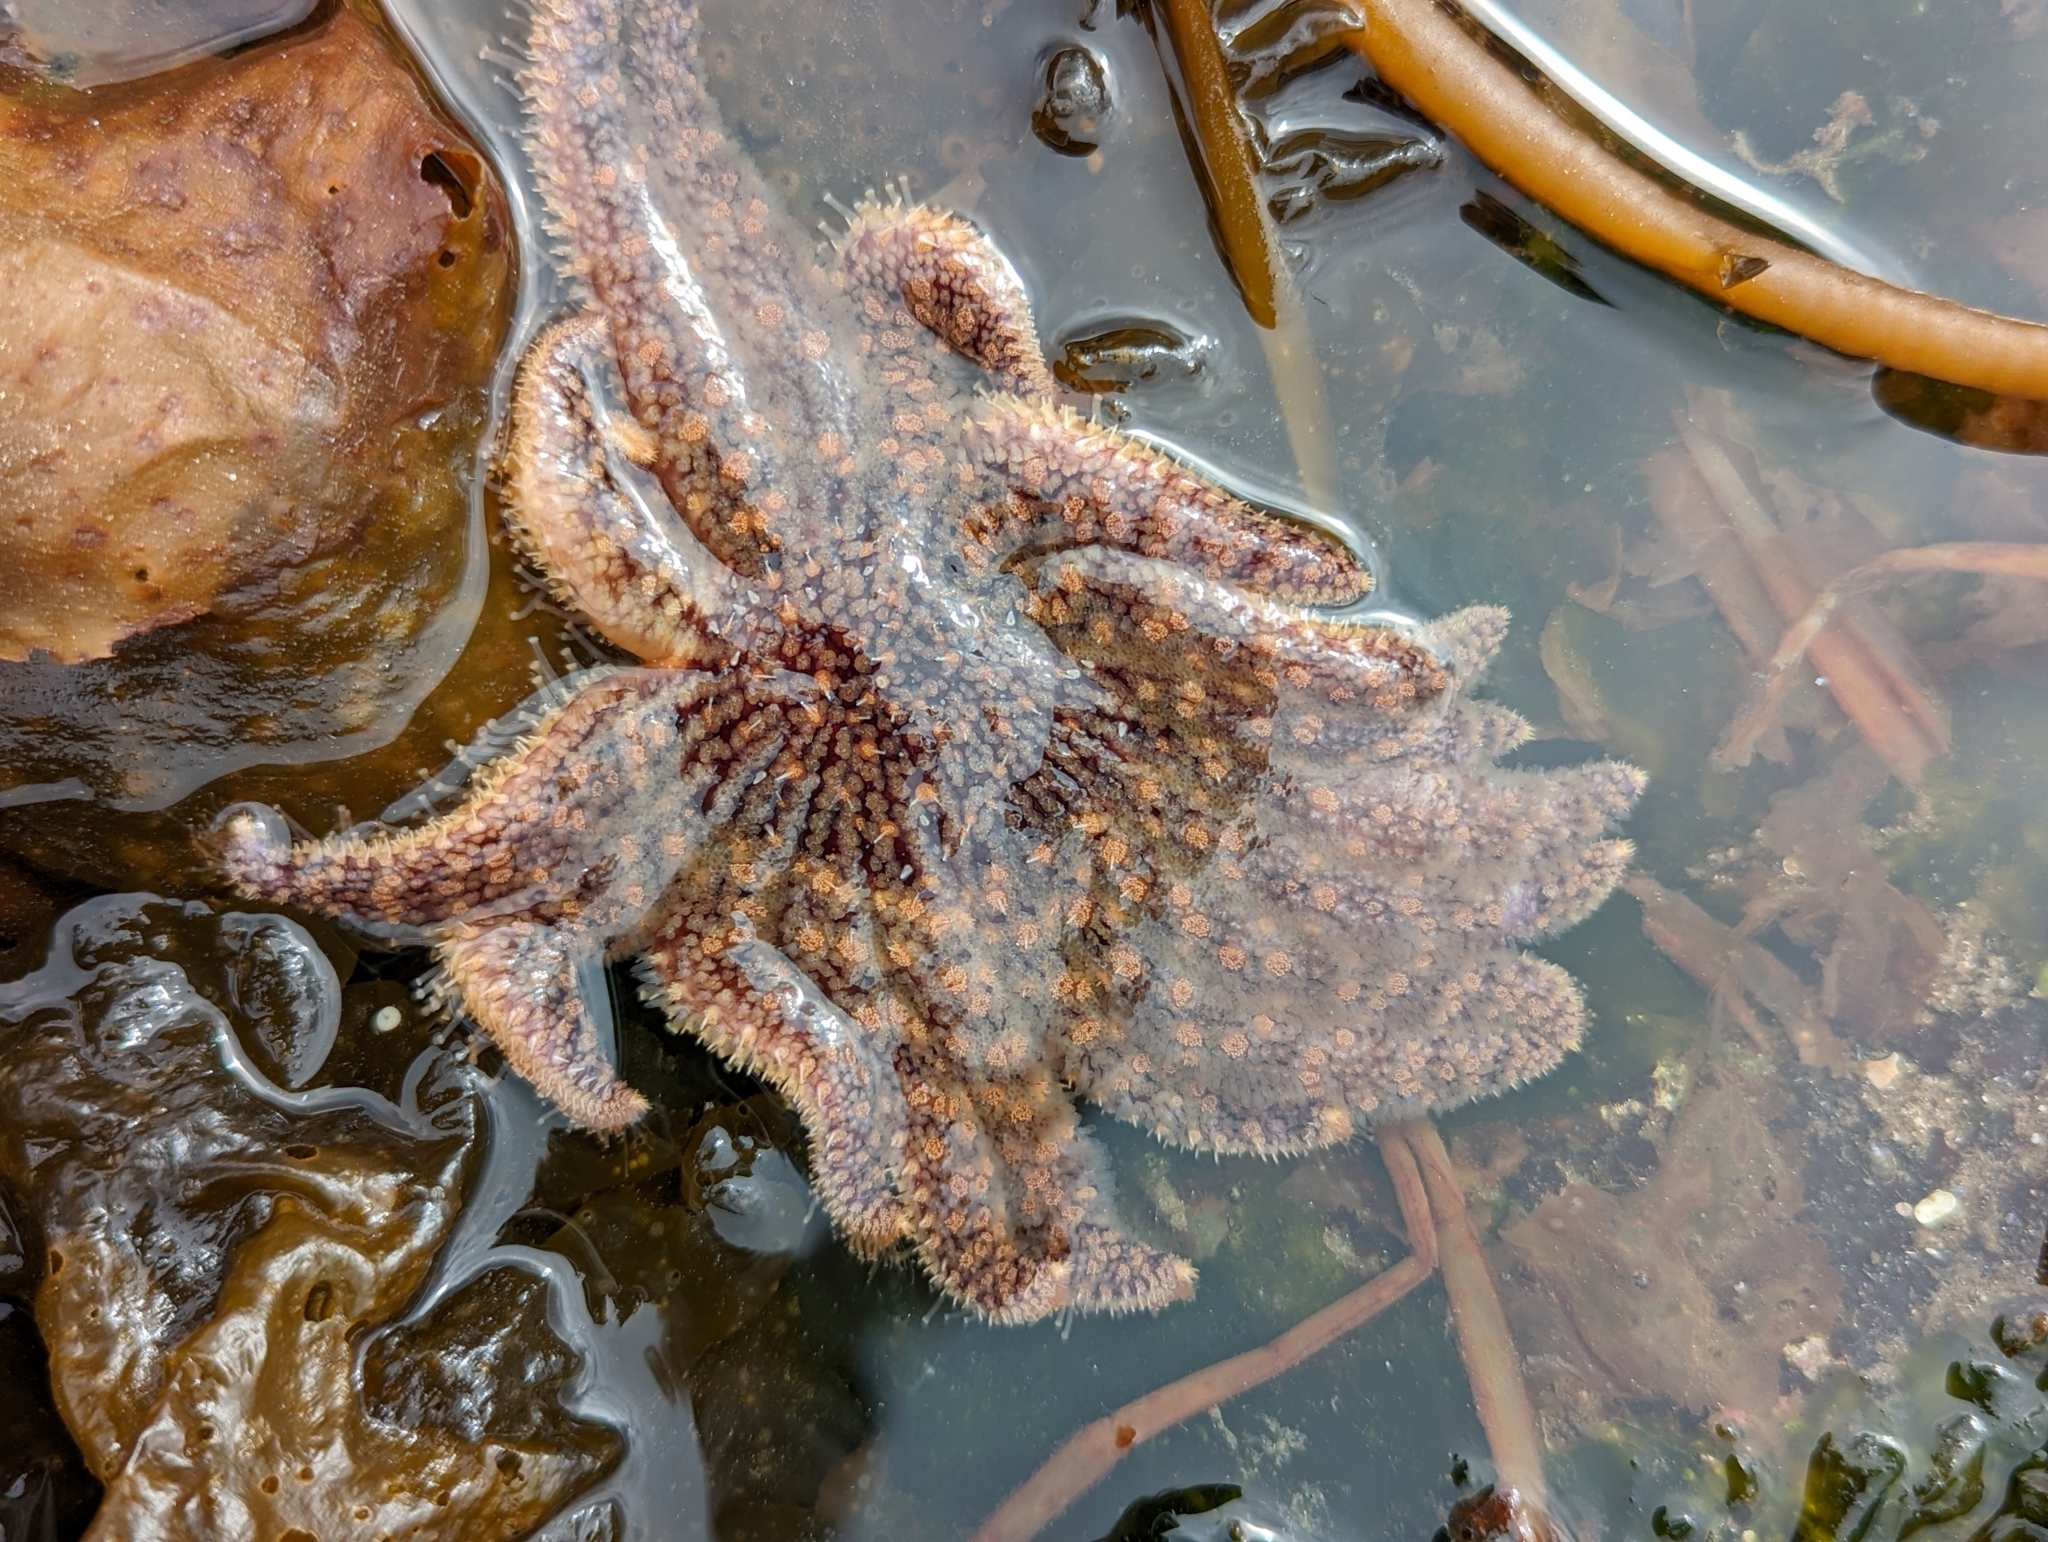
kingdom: Animalia
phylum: Echinodermata
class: Asteroidea
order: Forcipulatida
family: Asteriidae
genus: Pycnopodia
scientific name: Pycnopodia helianthoides
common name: Rag mop
